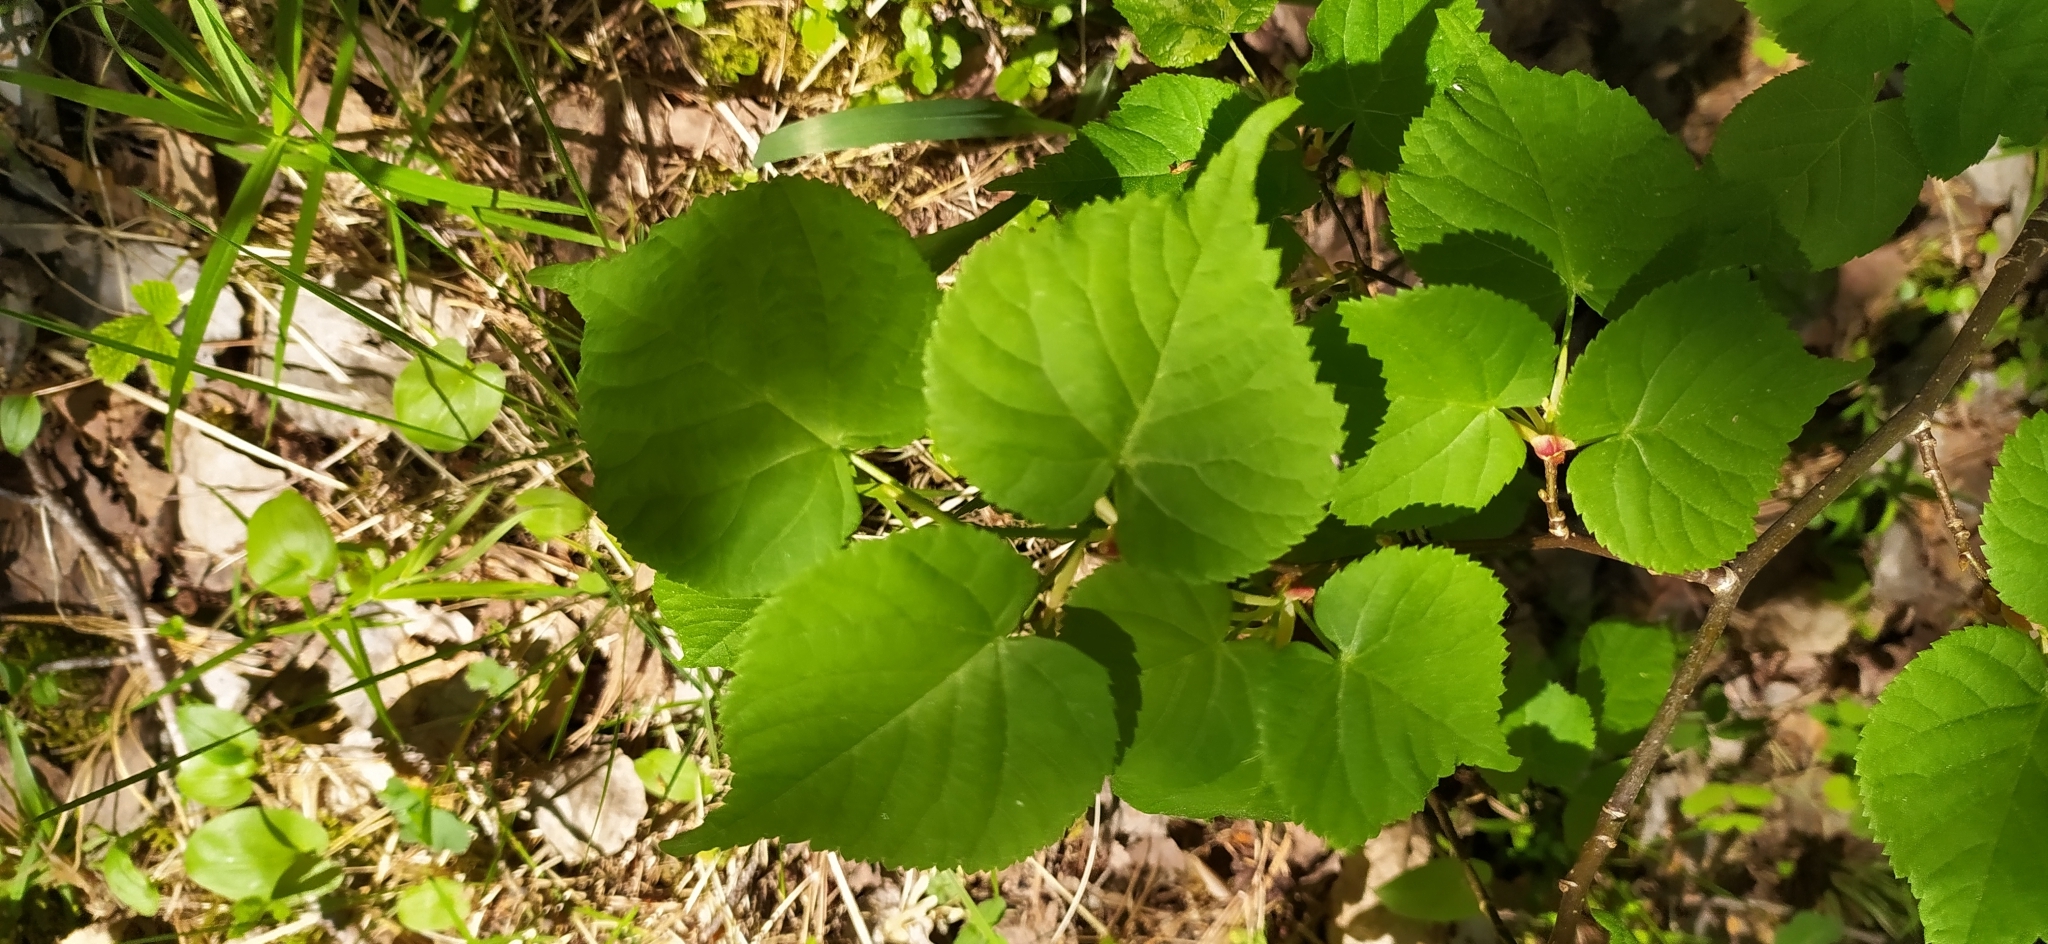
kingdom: Plantae
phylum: Tracheophyta
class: Magnoliopsida
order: Malvales
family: Malvaceae
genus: Tilia
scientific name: Tilia cordata
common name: Small-leaved lime
